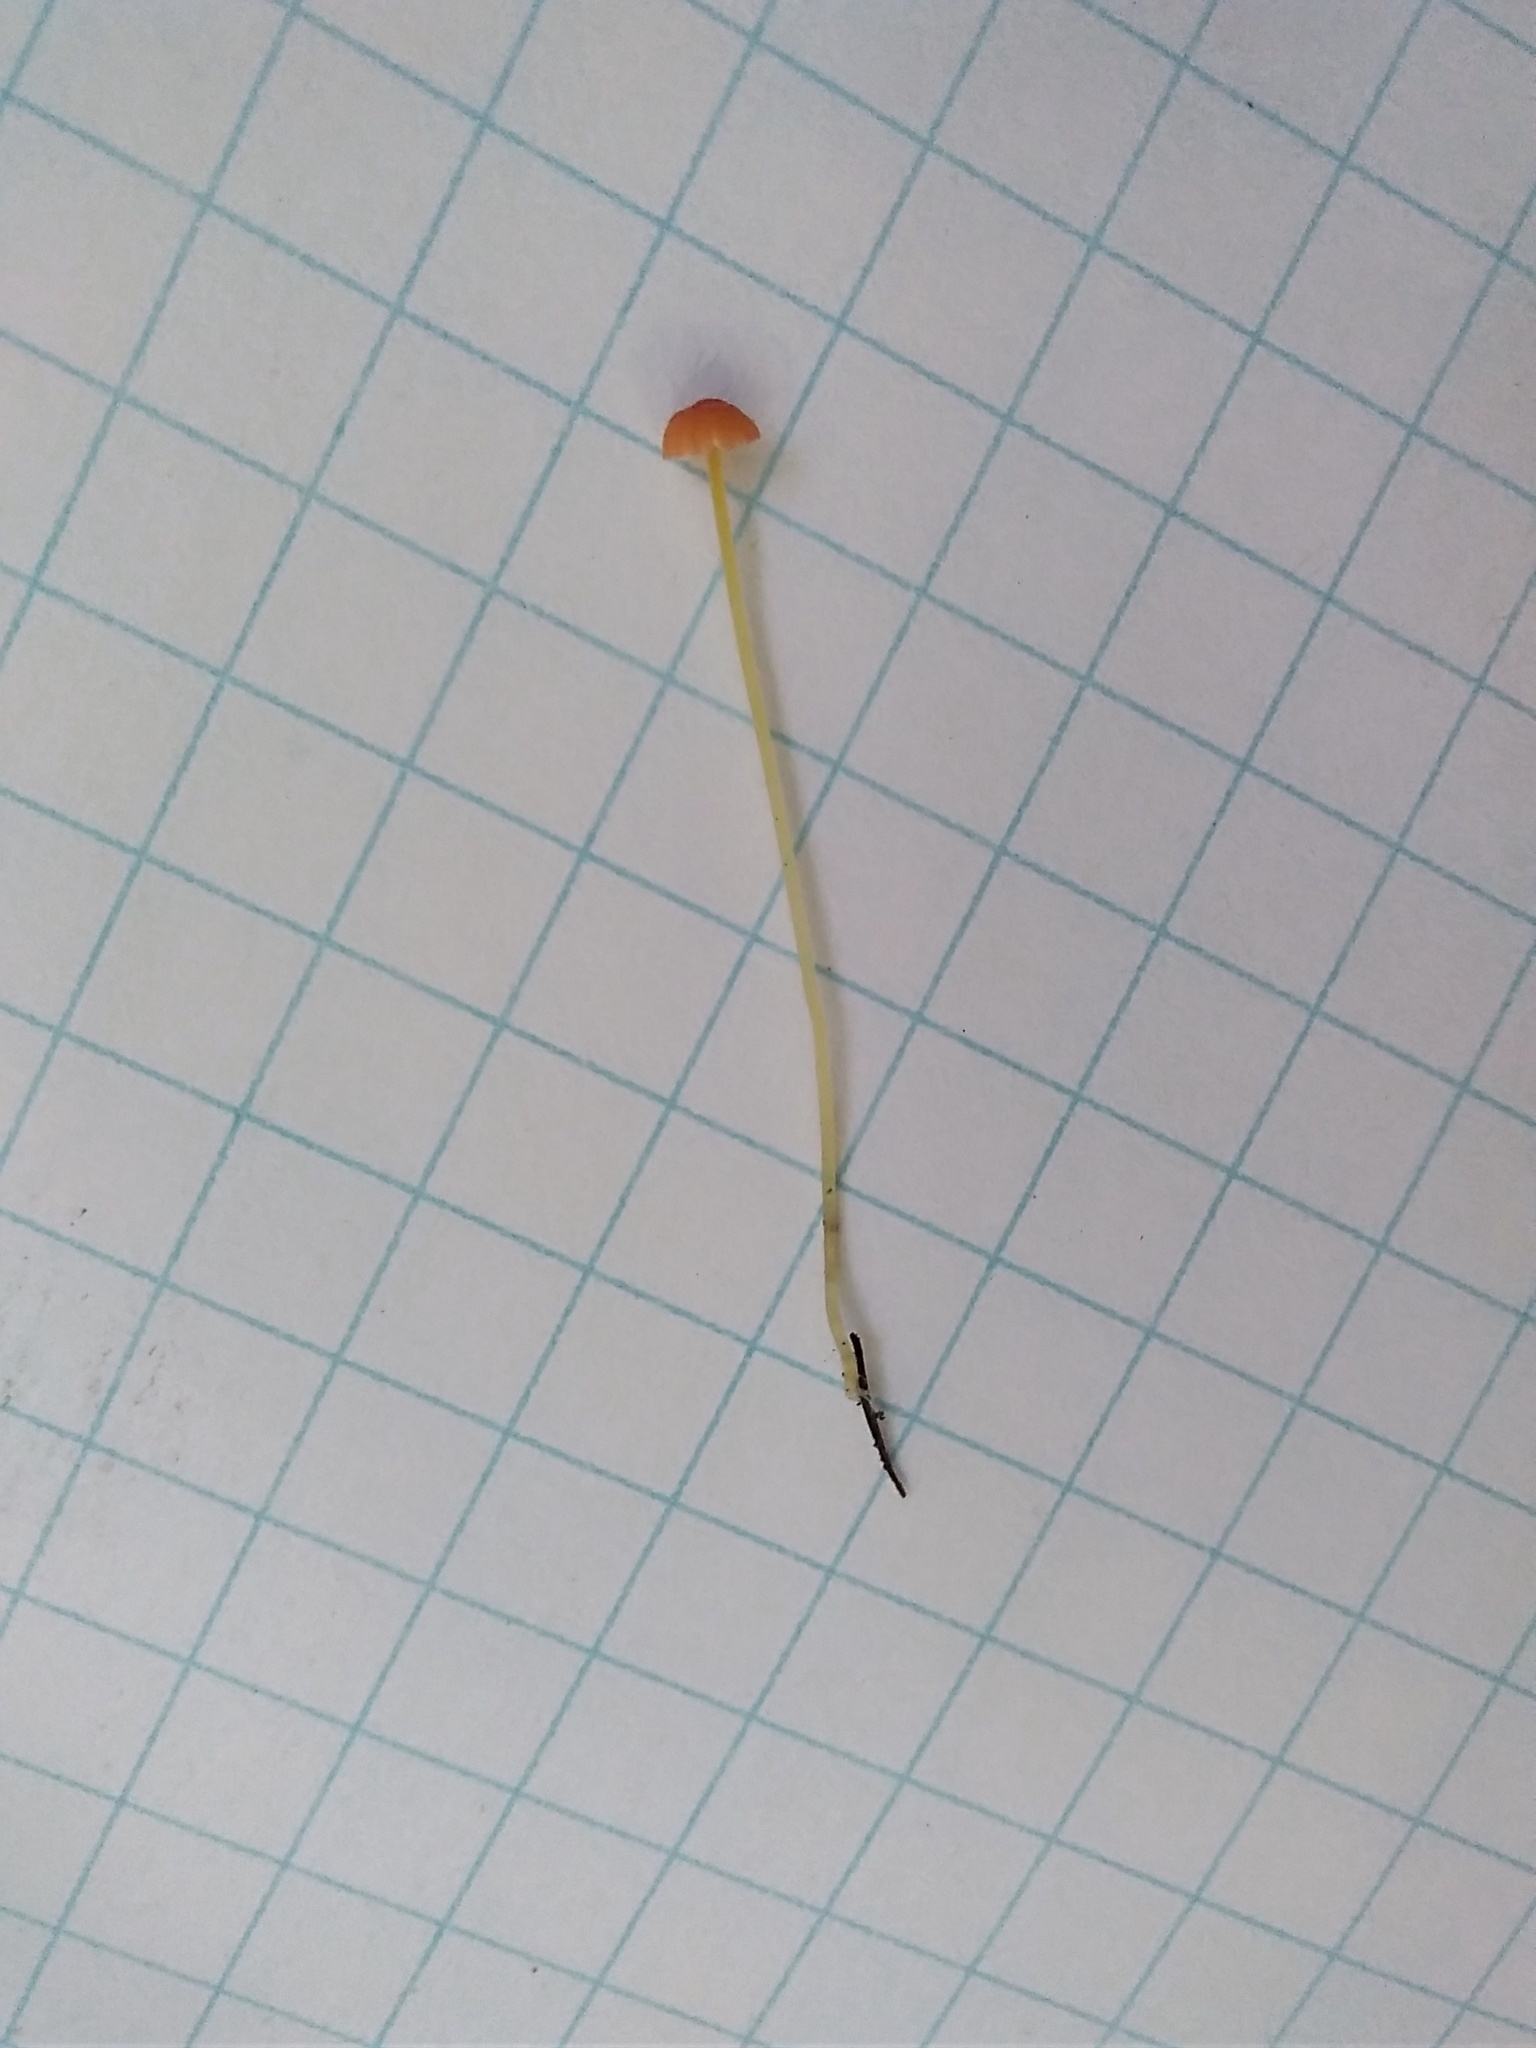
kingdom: Fungi
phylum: Basidiomycota
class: Agaricomycetes
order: Agaricales
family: Mycenaceae
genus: Mycena
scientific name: Mycena acicula
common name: Orange bonnet
